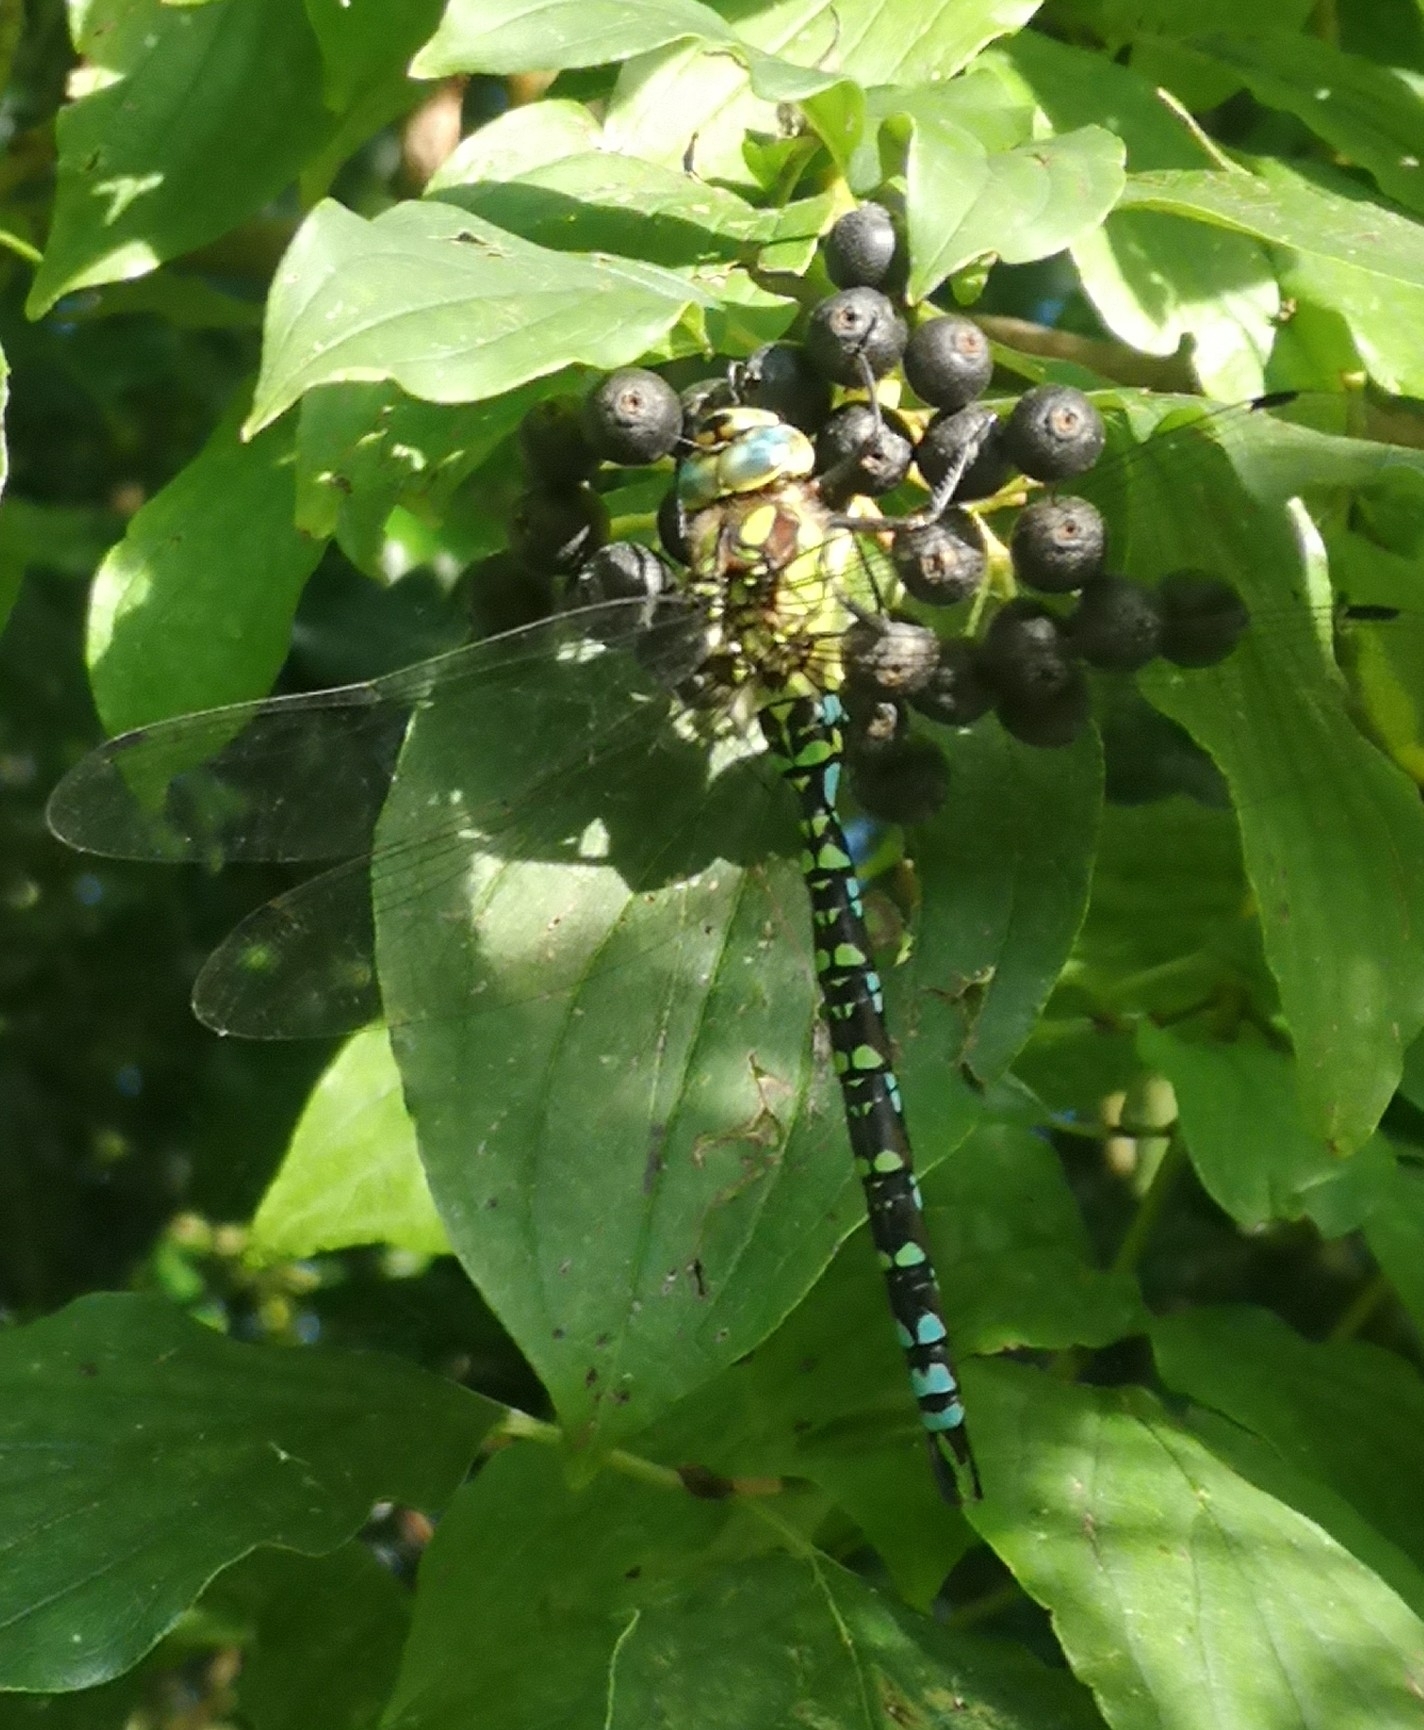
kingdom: Animalia
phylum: Arthropoda
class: Insecta
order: Odonata
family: Aeshnidae
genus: Aeshna
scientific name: Aeshna cyanea
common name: Southern hawker
